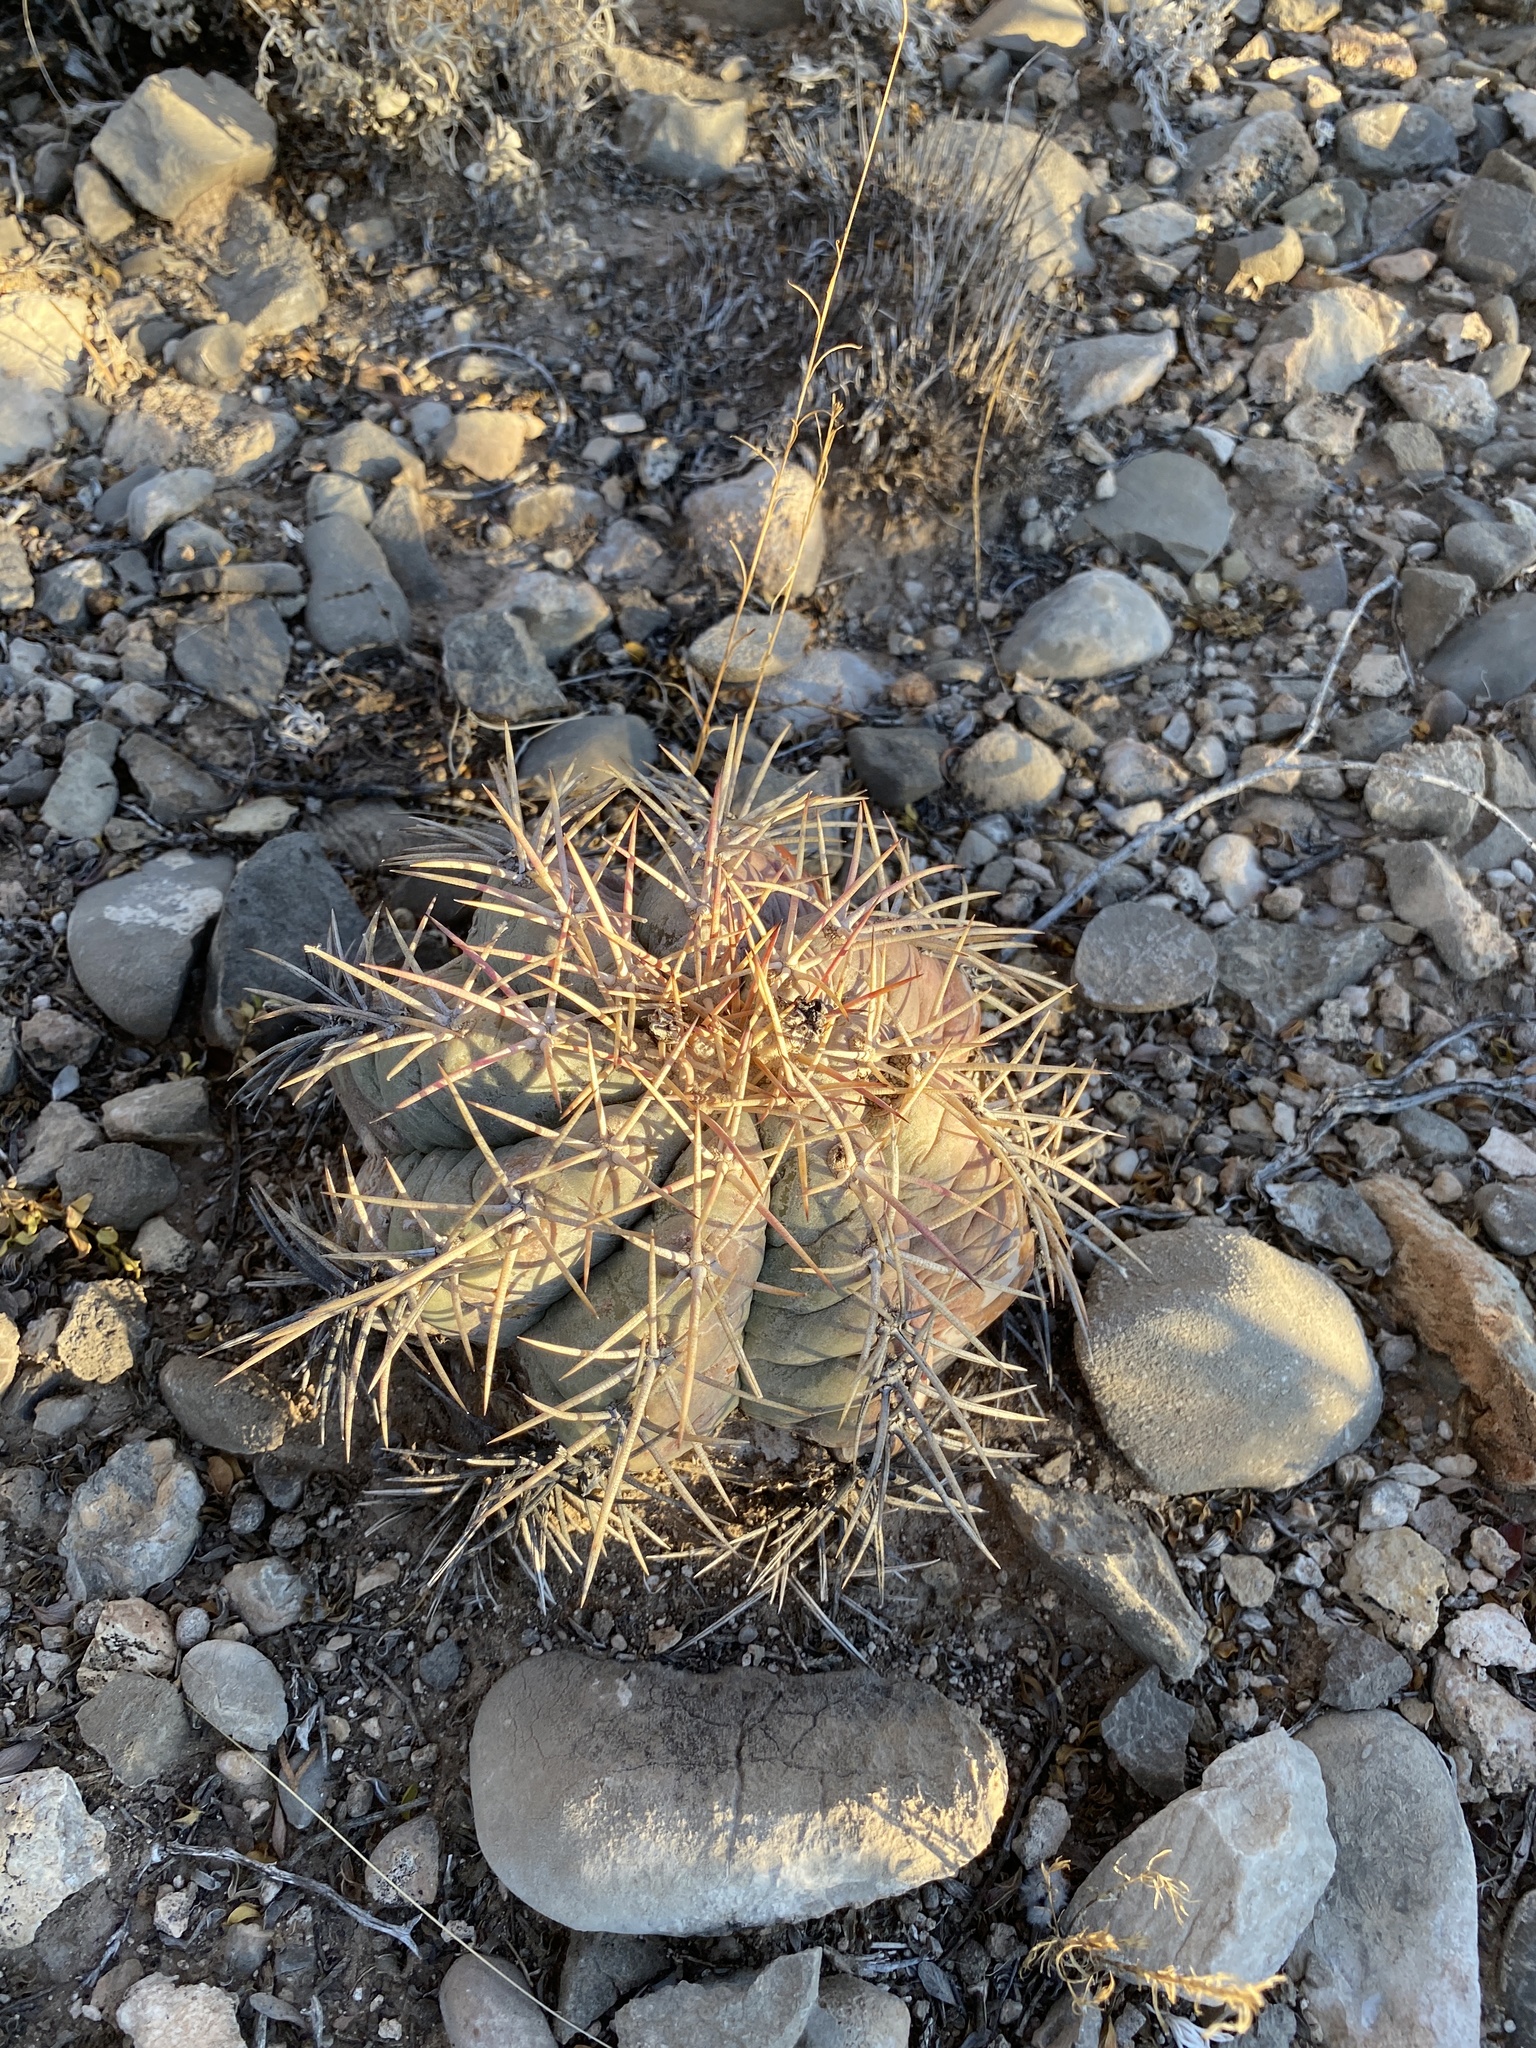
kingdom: Plantae
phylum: Tracheophyta
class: Magnoliopsida
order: Caryophyllales
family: Cactaceae
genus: Echinocactus
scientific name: Echinocactus horizonthalonius
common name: Devilshead
